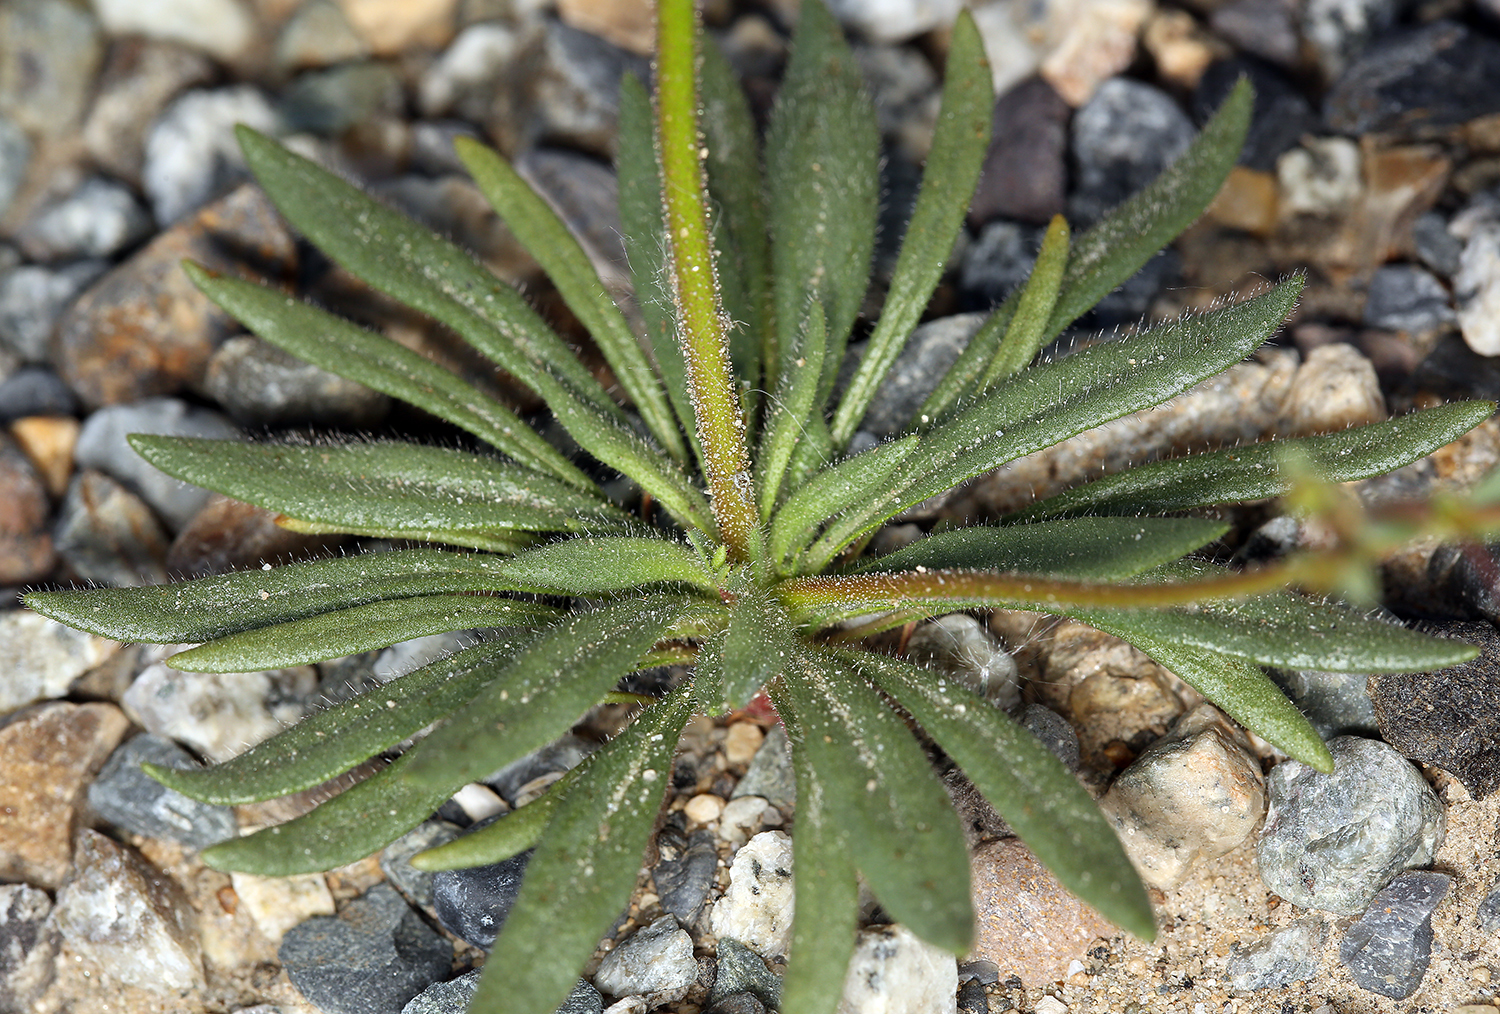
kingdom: Plantae
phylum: Tracheophyta
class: Magnoliopsida
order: Caryophyllales
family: Polygonaceae
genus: Oxytheca
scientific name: Oxytheca dendroidea
